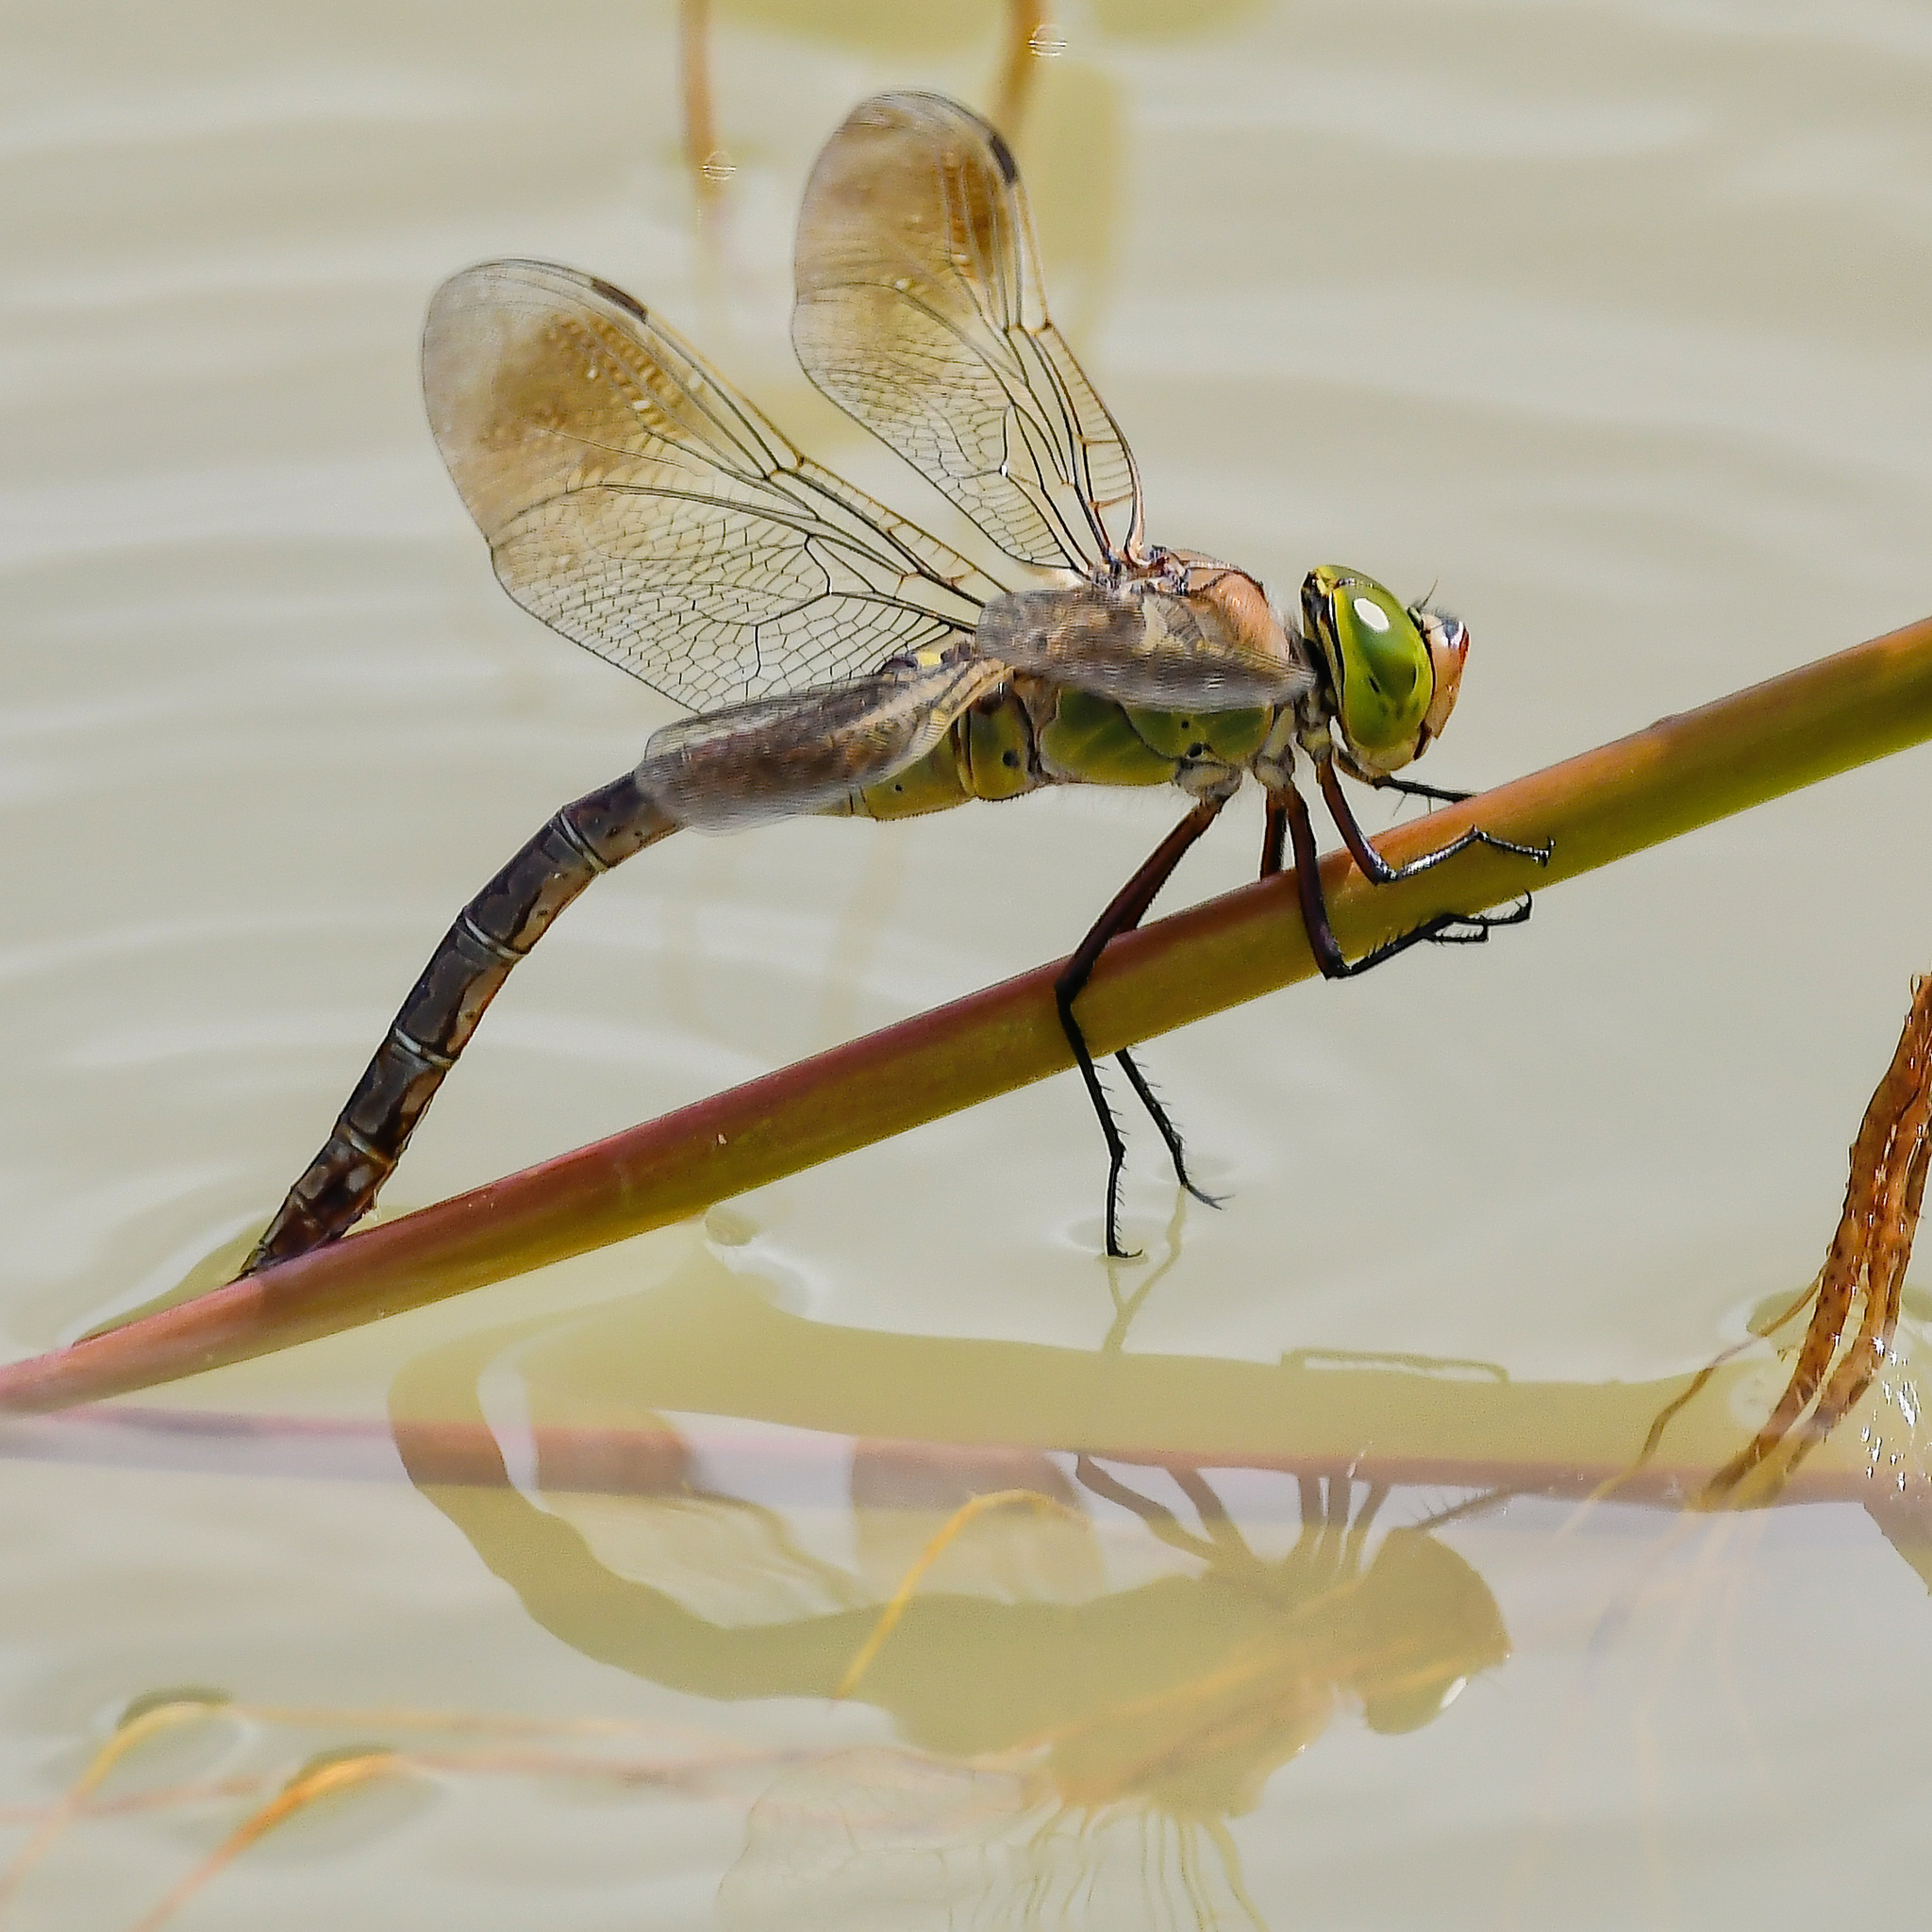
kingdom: Animalia
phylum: Arthropoda
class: Insecta
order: Odonata
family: Aeshnidae
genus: Anax
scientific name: Anax parthenope
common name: Lesser emperor
